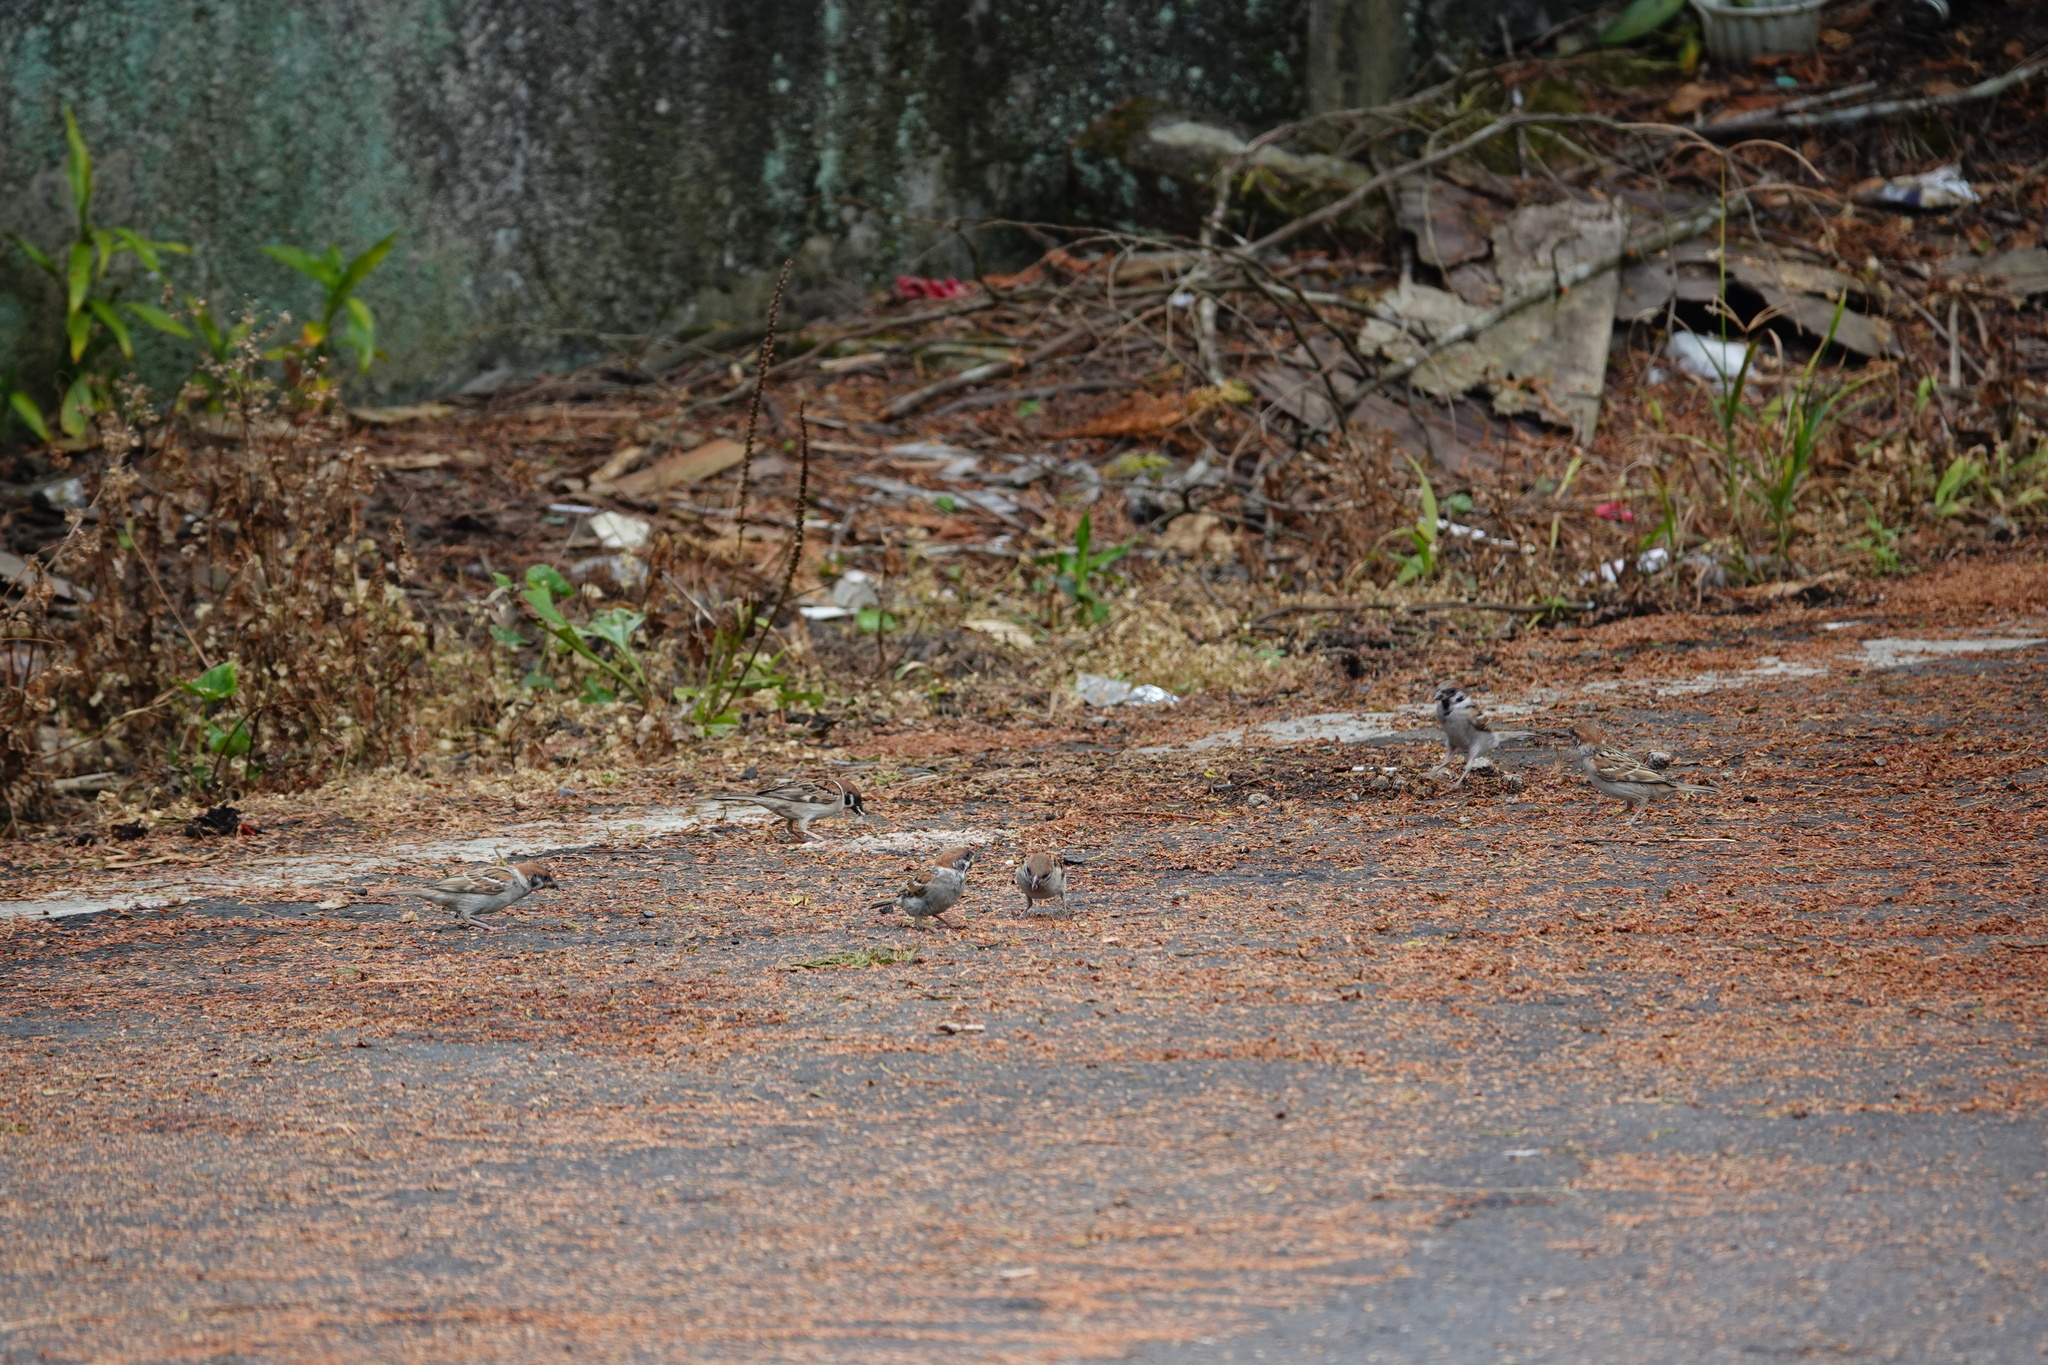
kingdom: Animalia
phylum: Chordata
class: Aves
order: Passeriformes
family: Passeridae
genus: Passer
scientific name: Passer montanus
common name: Eurasian tree sparrow
